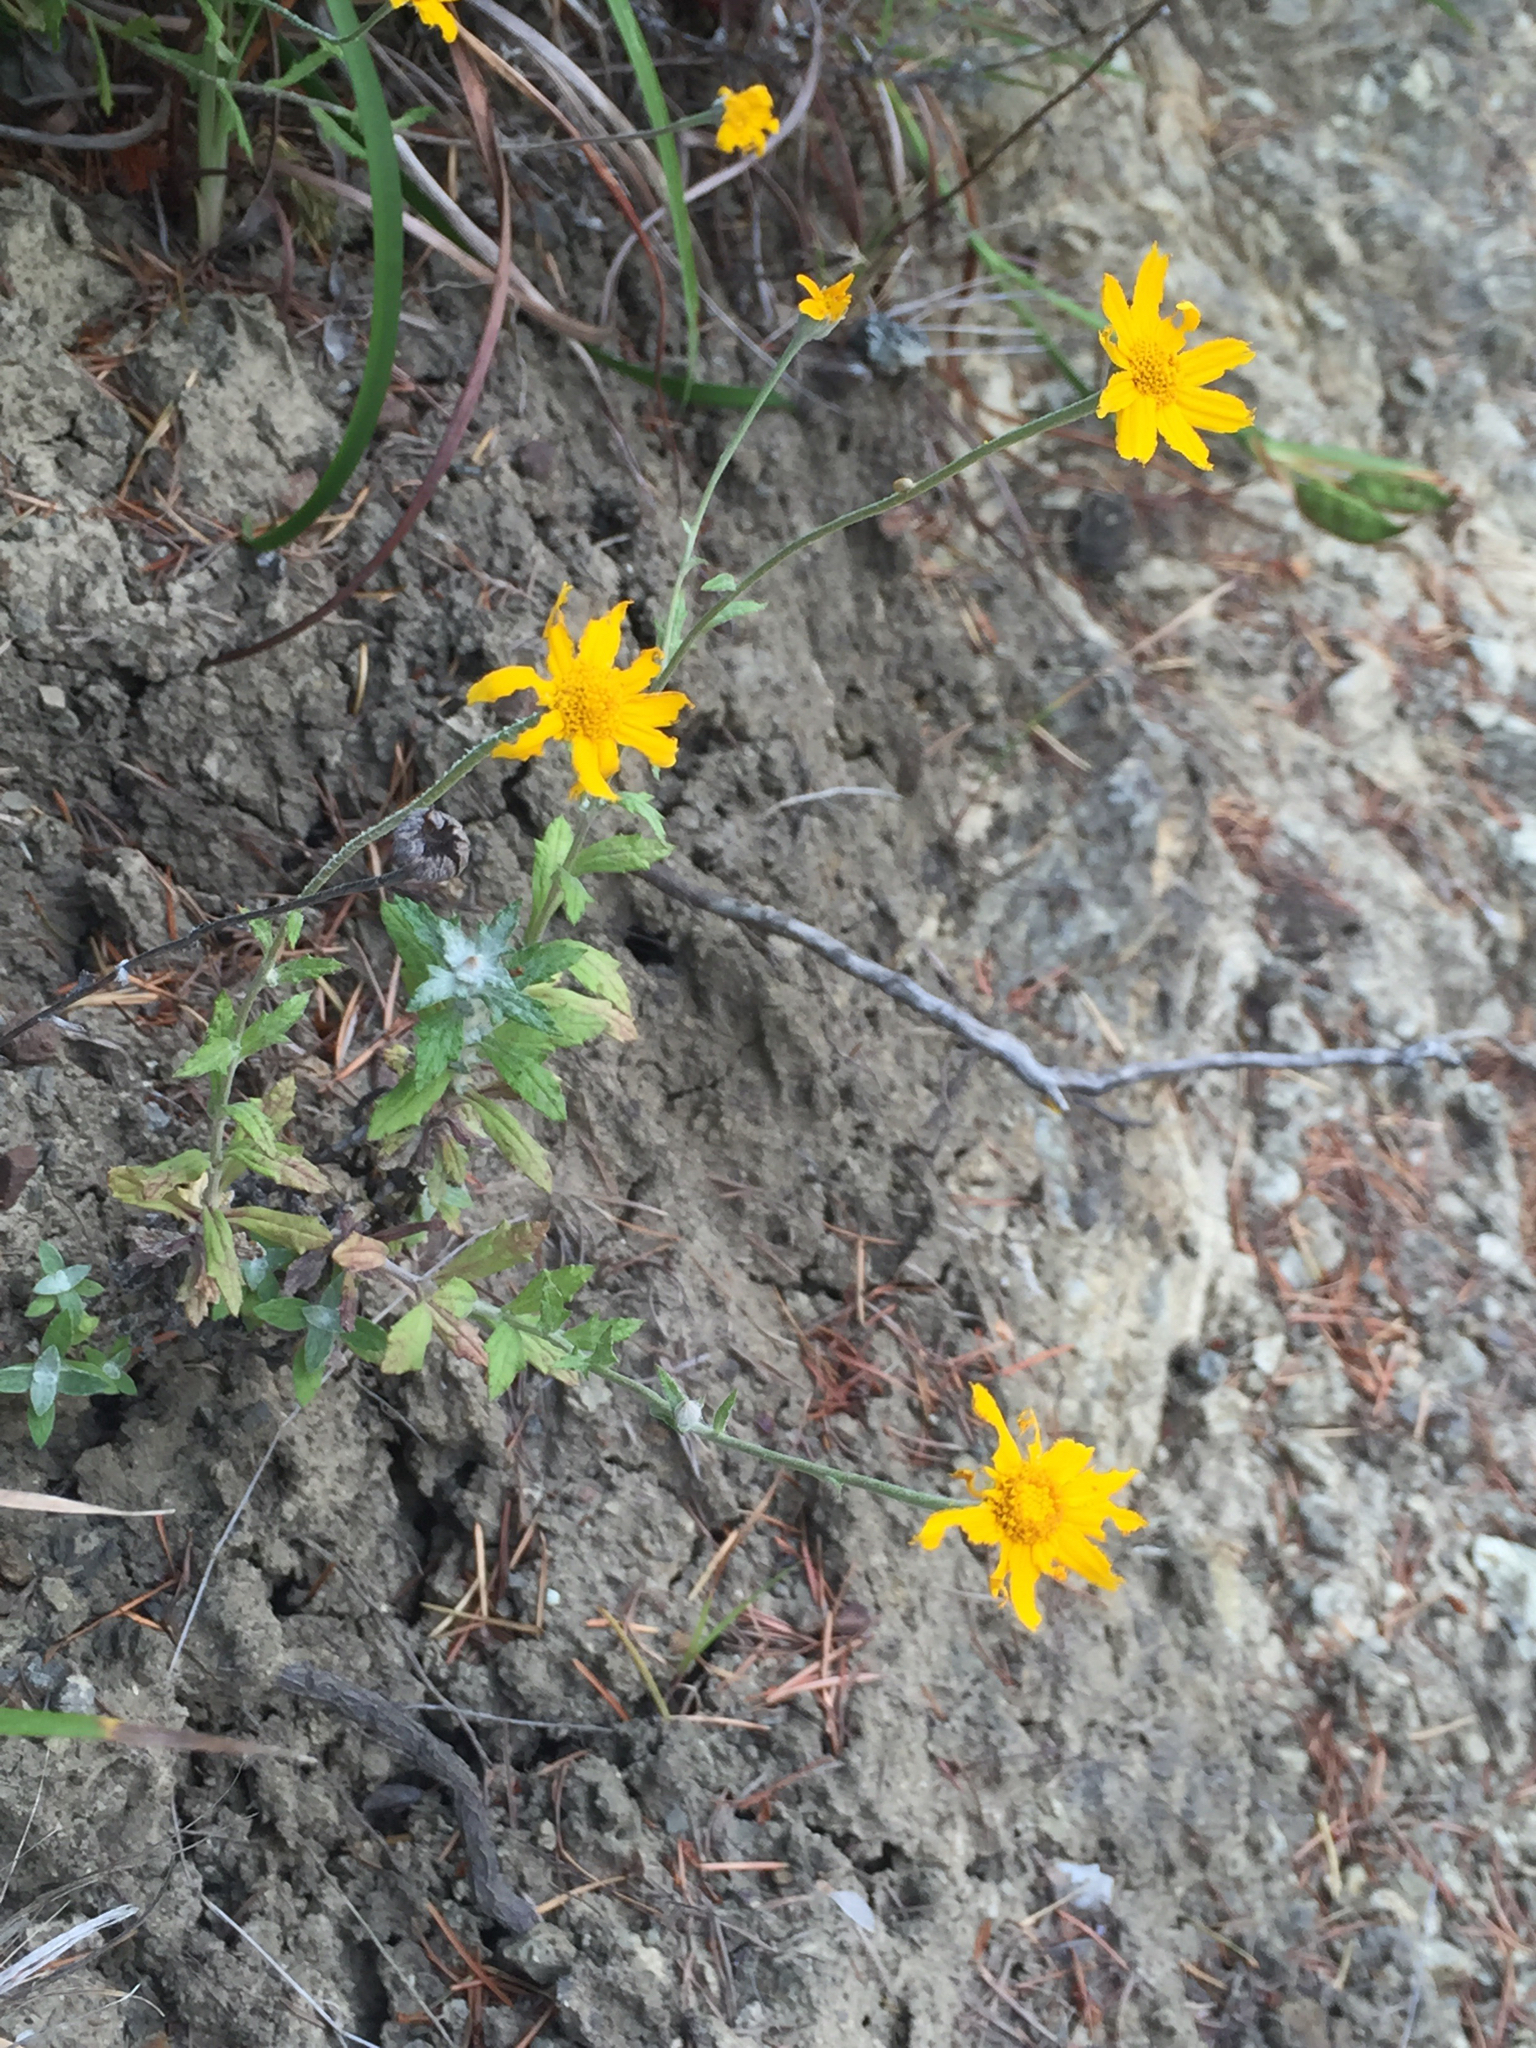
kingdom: Plantae
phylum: Tracheophyta
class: Magnoliopsida
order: Asterales
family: Asteraceae
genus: Eriophyllum
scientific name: Eriophyllum lanatum
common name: Common woolly-sunflower
